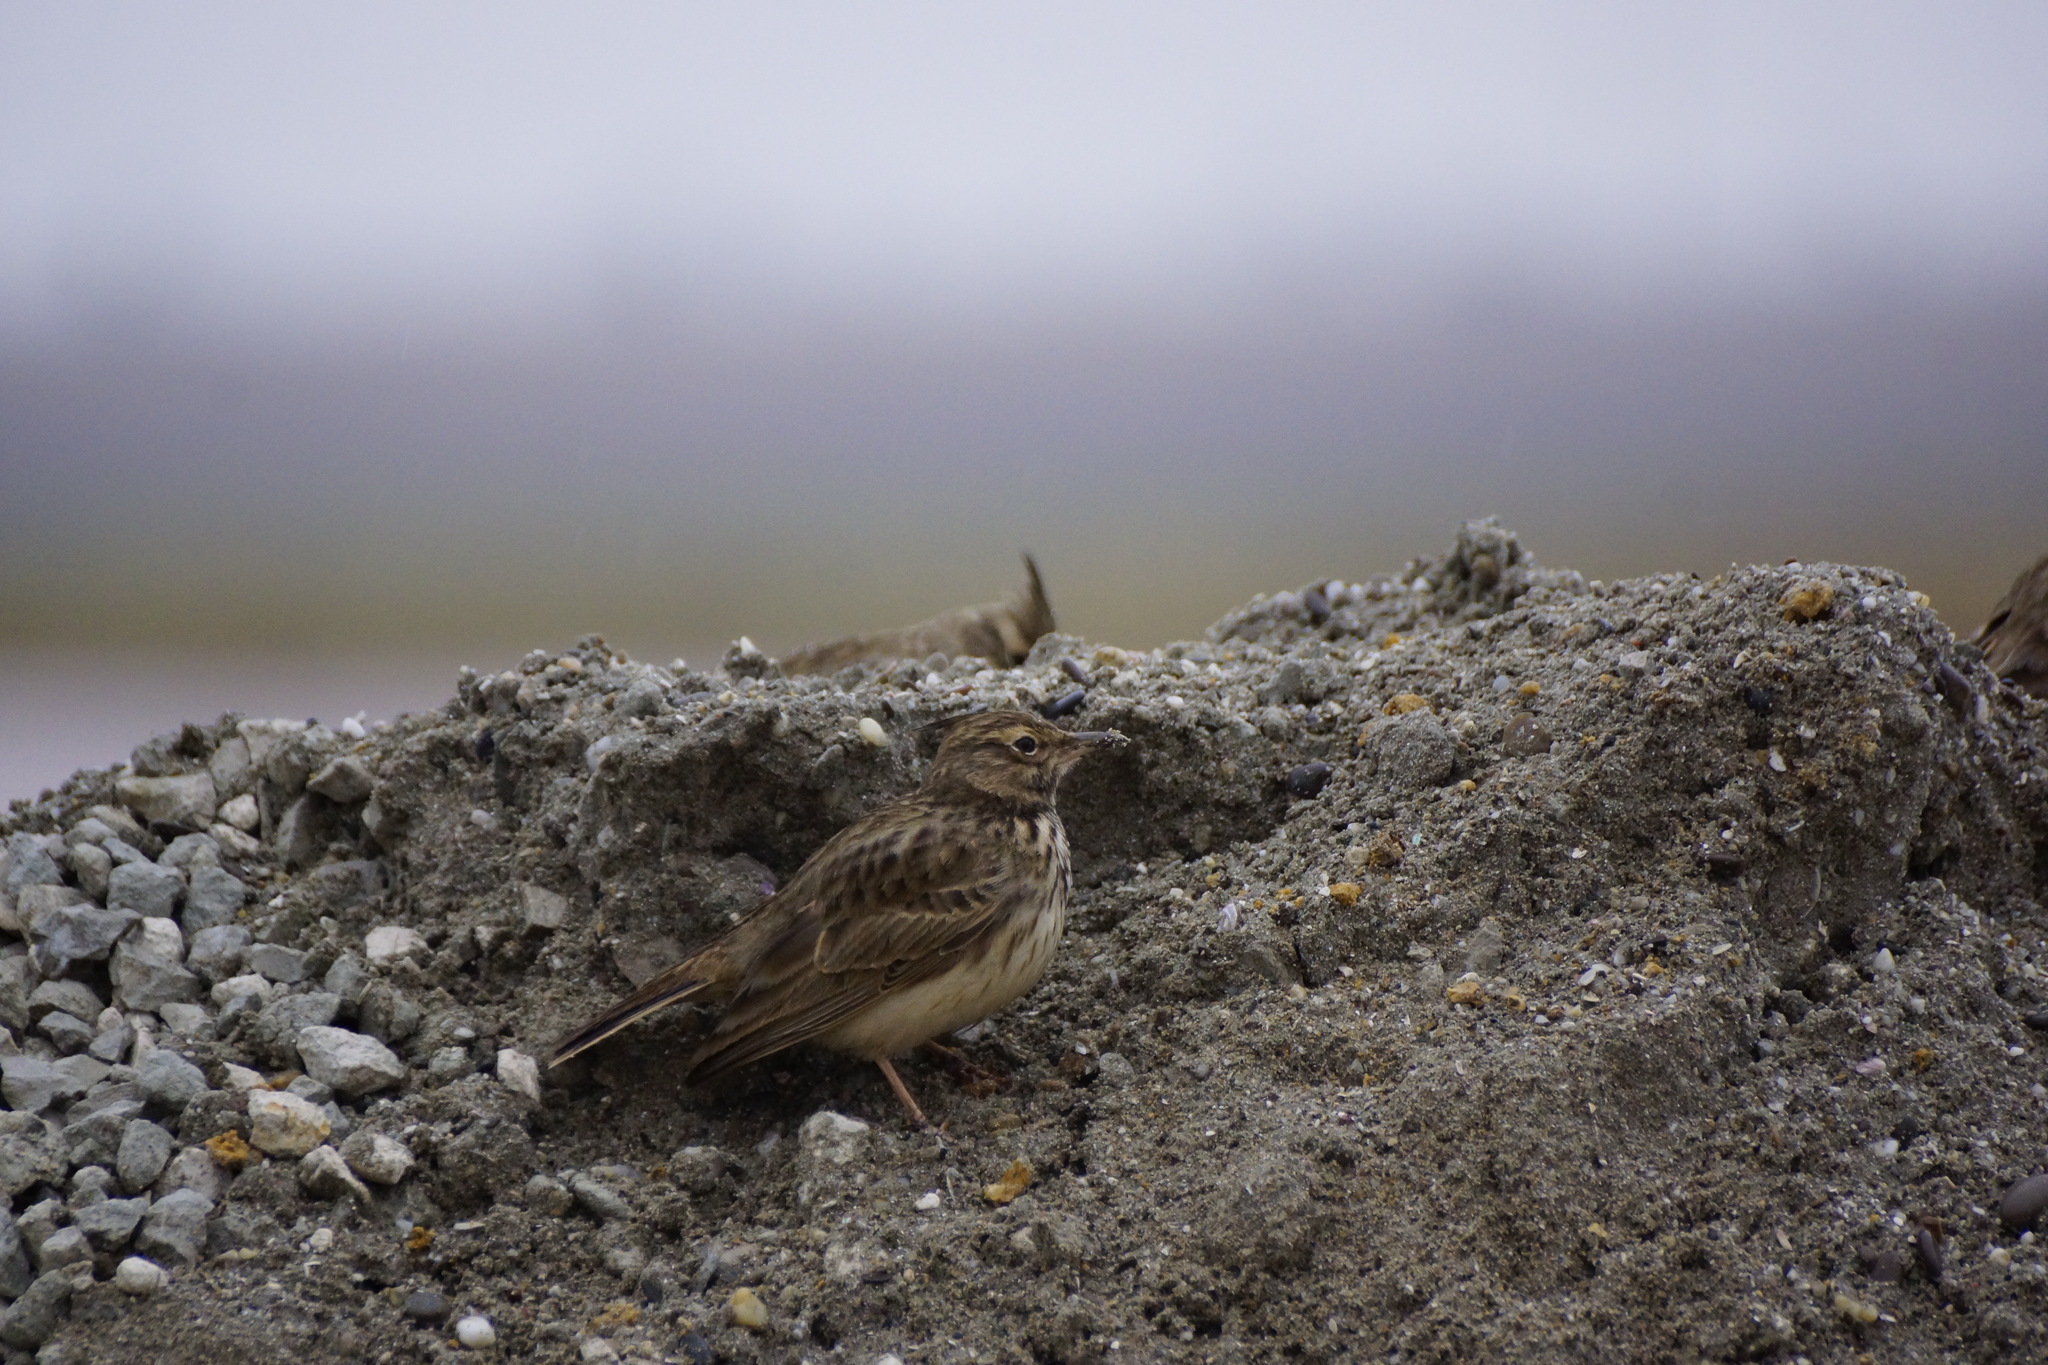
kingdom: Animalia
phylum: Chordata
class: Aves
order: Passeriformes
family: Alaudidae
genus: Galerida
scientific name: Galerida cristata
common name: Crested lark
